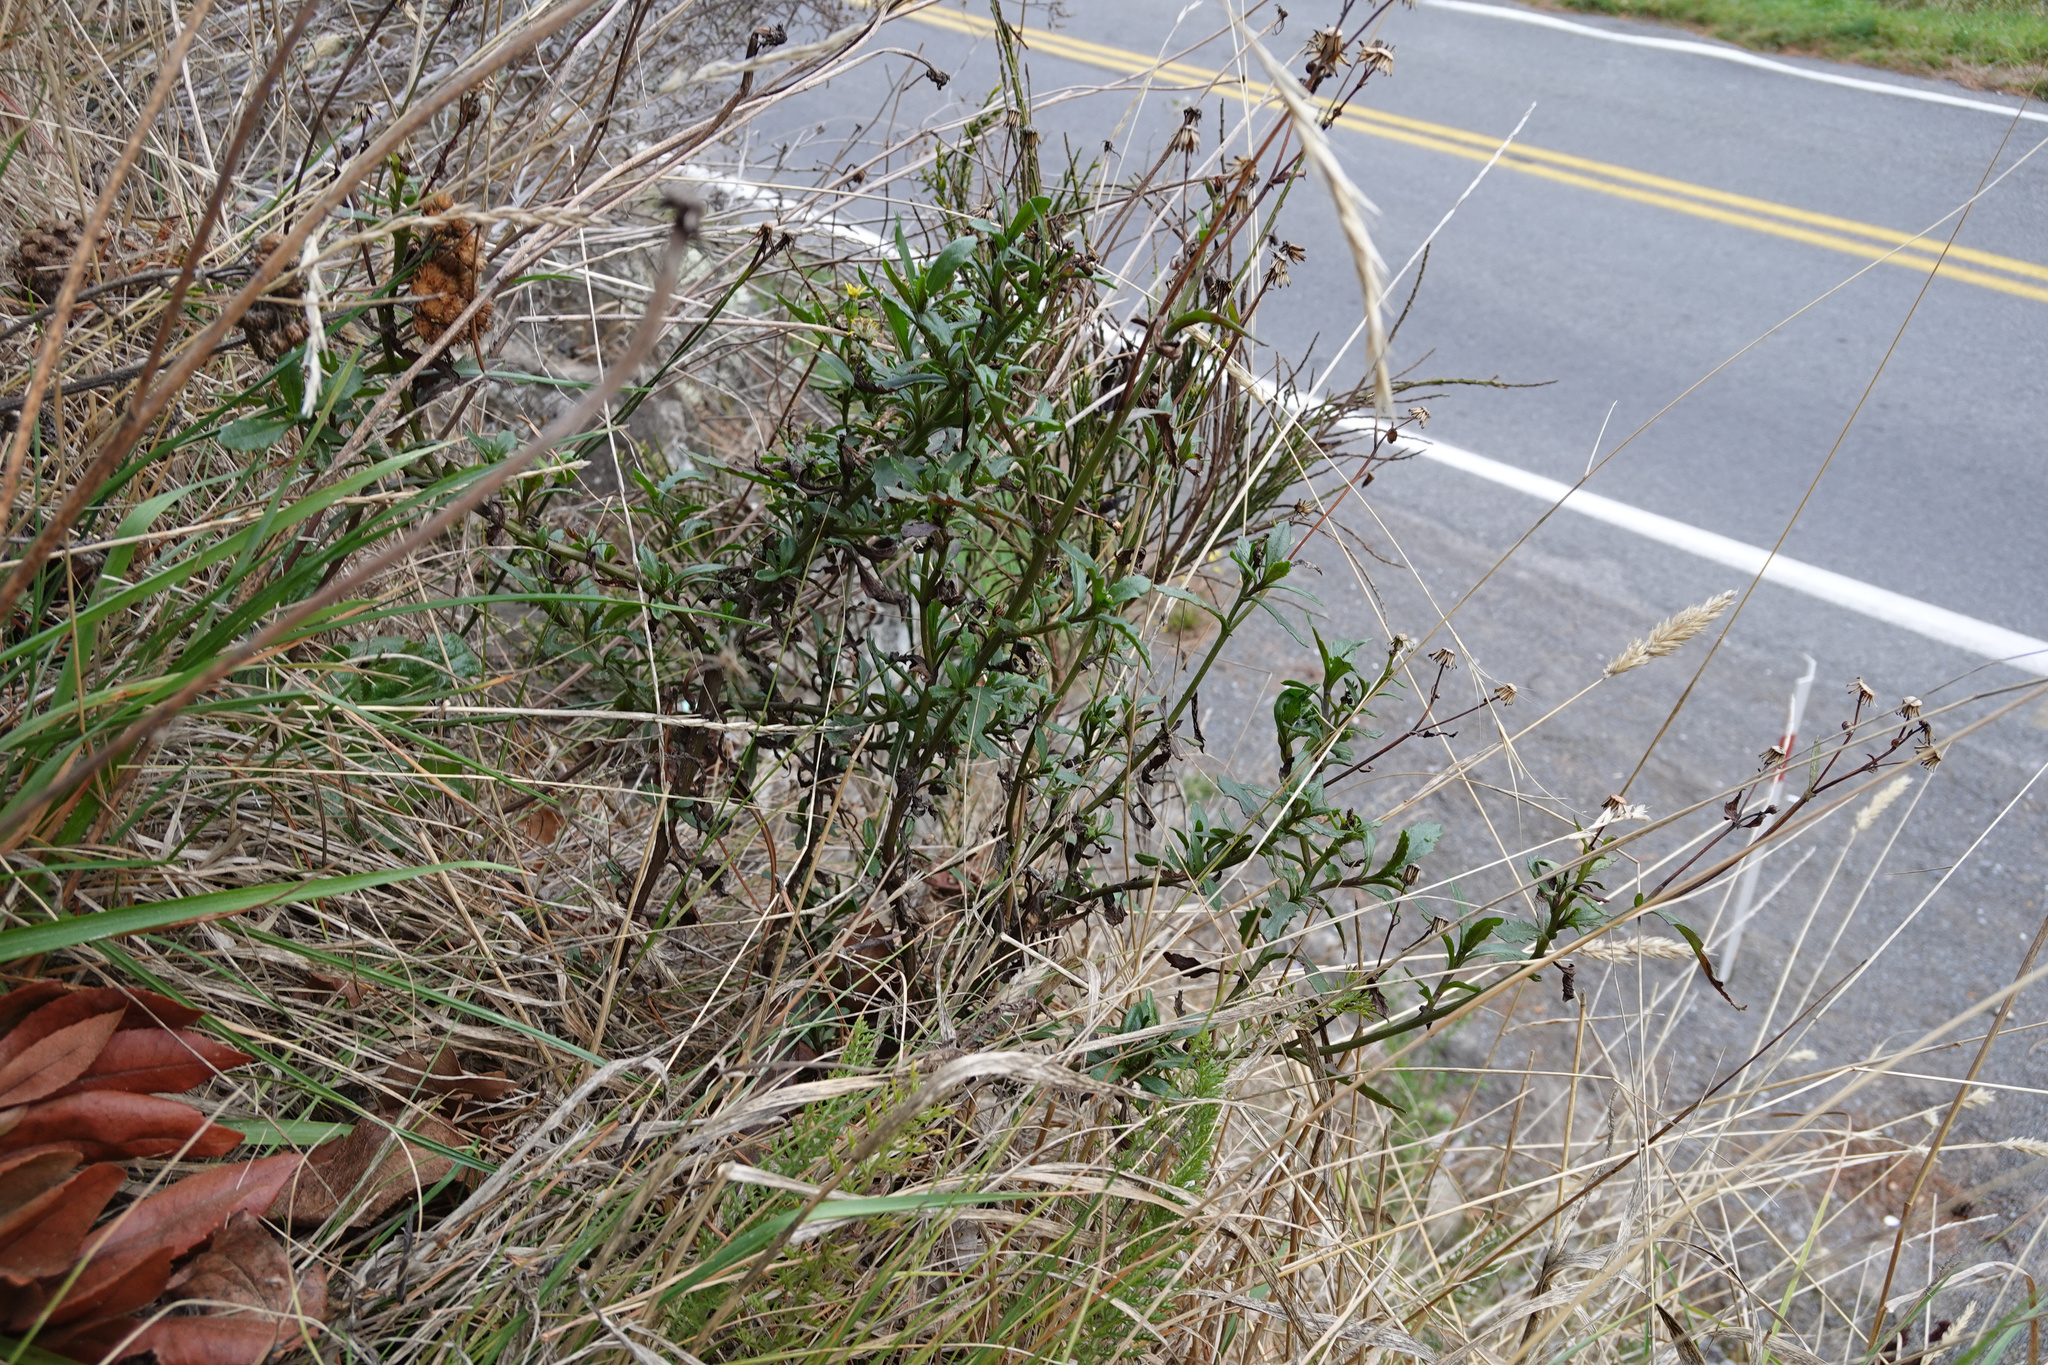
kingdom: Plantae
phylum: Tracheophyta
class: Magnoliopsida
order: Asterales
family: Asteraceae
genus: Senecio
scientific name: Senecio glomeratus
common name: Cutleaf burnweed
